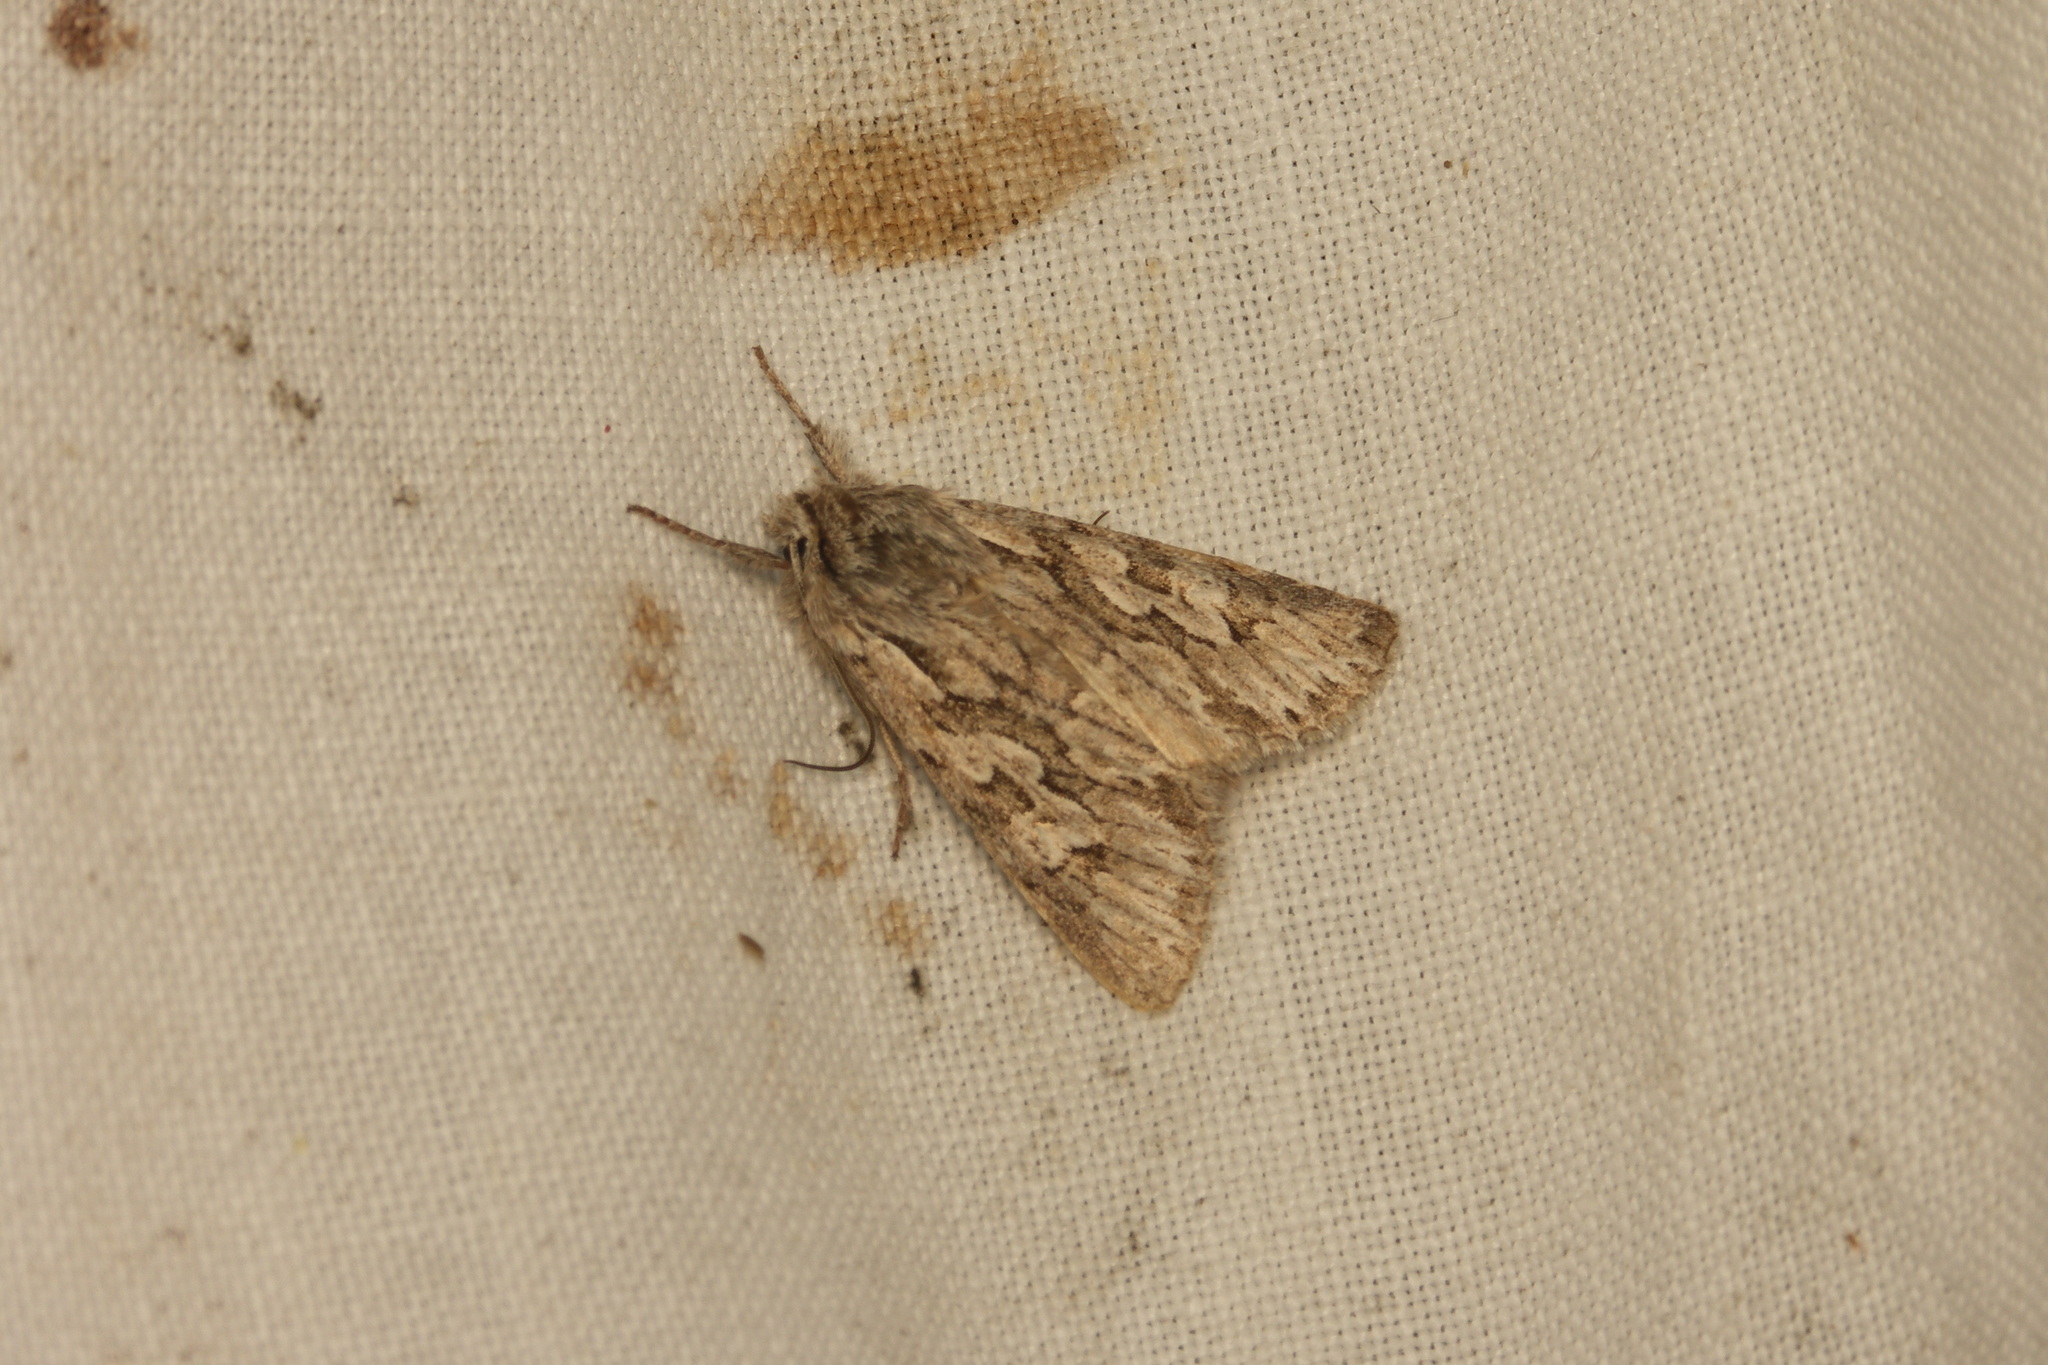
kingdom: Animalia
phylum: Arthropoda
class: Insecta
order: Lepidoptera
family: Noctuidae
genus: Xylocampa
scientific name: Xylocampa areola
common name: Early grey
